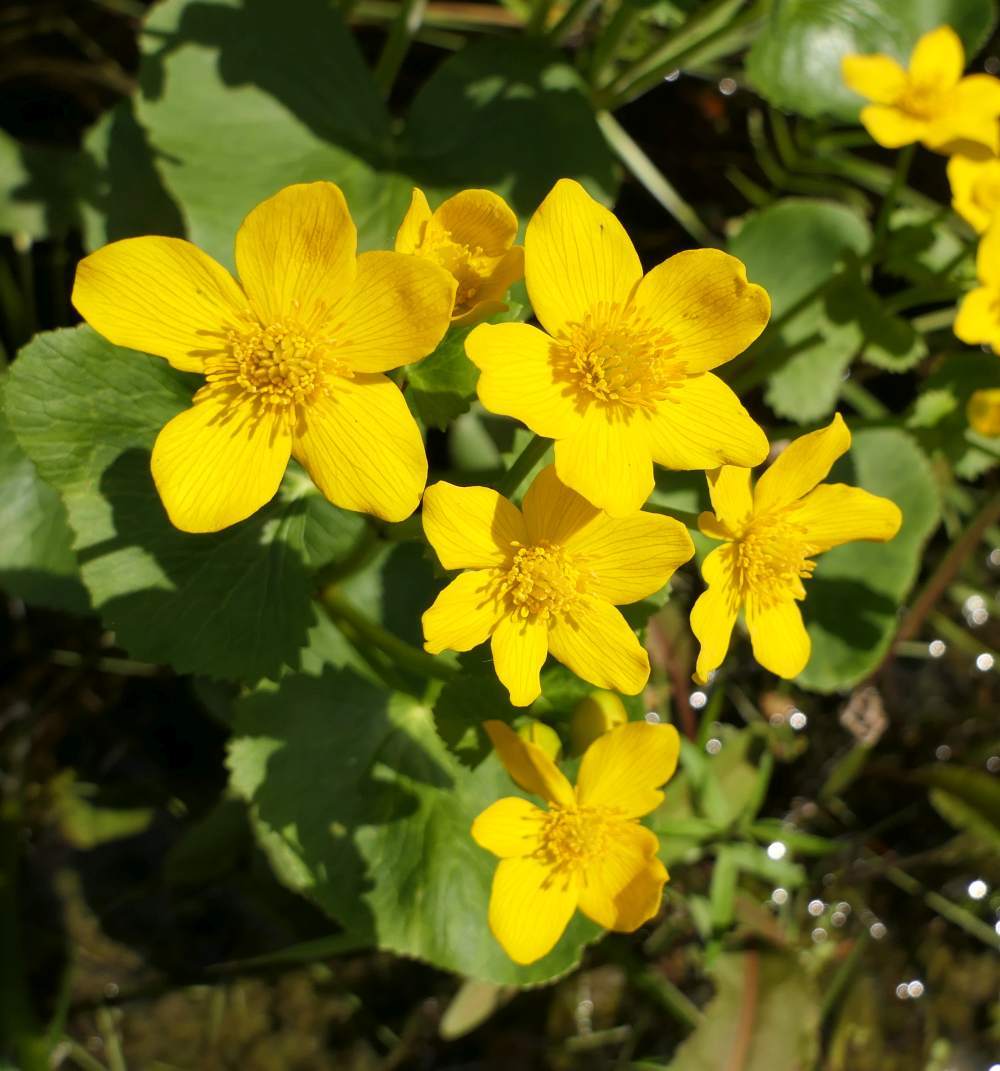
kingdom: Plantae
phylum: Tracheophyta
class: Magnoliopsida
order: Ranunculales
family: Ranunculaceae
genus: Caltha
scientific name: Caltha palustris
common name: Marsh marigold
